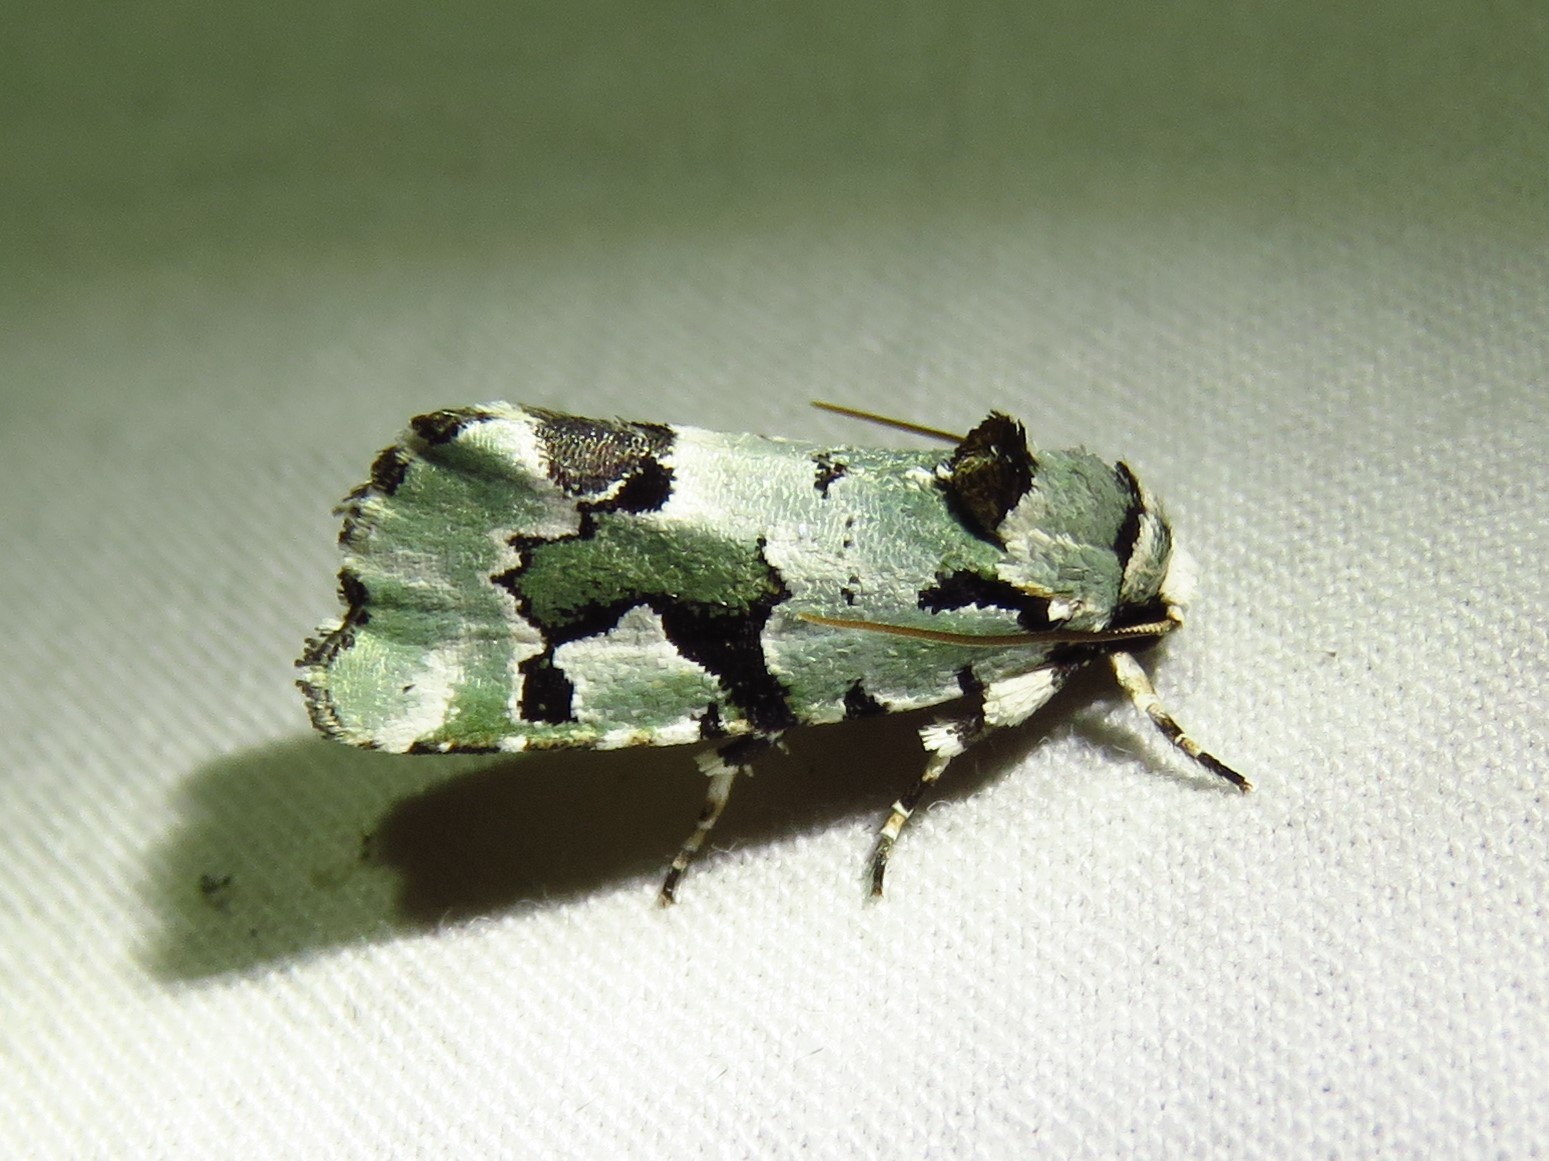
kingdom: Animalia
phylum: Arthropoda
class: Insecta
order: Lepidoptera
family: Noctuidae
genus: Emarginea
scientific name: Emarginea percara
